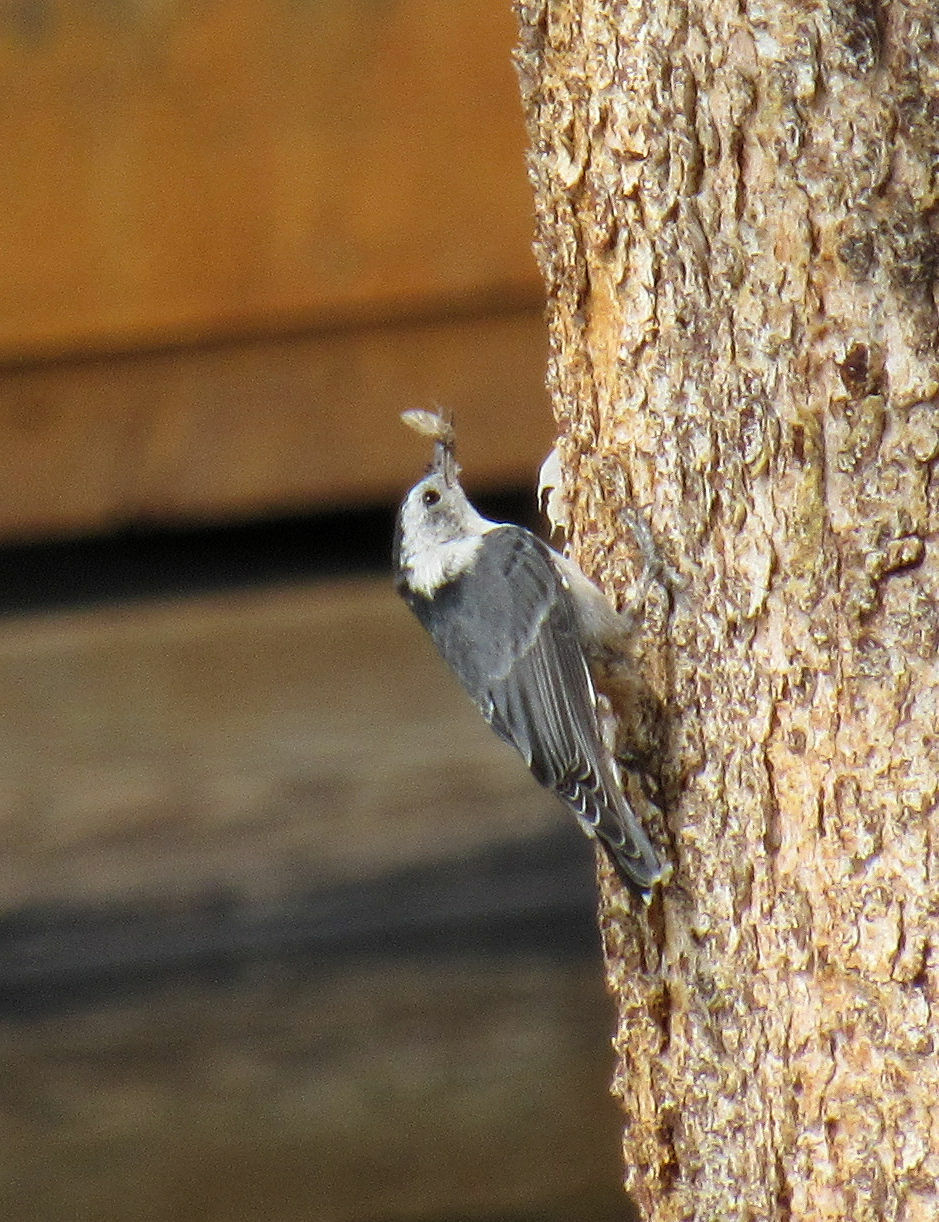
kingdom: Animalia
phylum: Chordata
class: Aves
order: Passeriformes
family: Sittidae
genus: Sitta
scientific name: Sitta carolinensis
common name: White-breasted nuthatch
